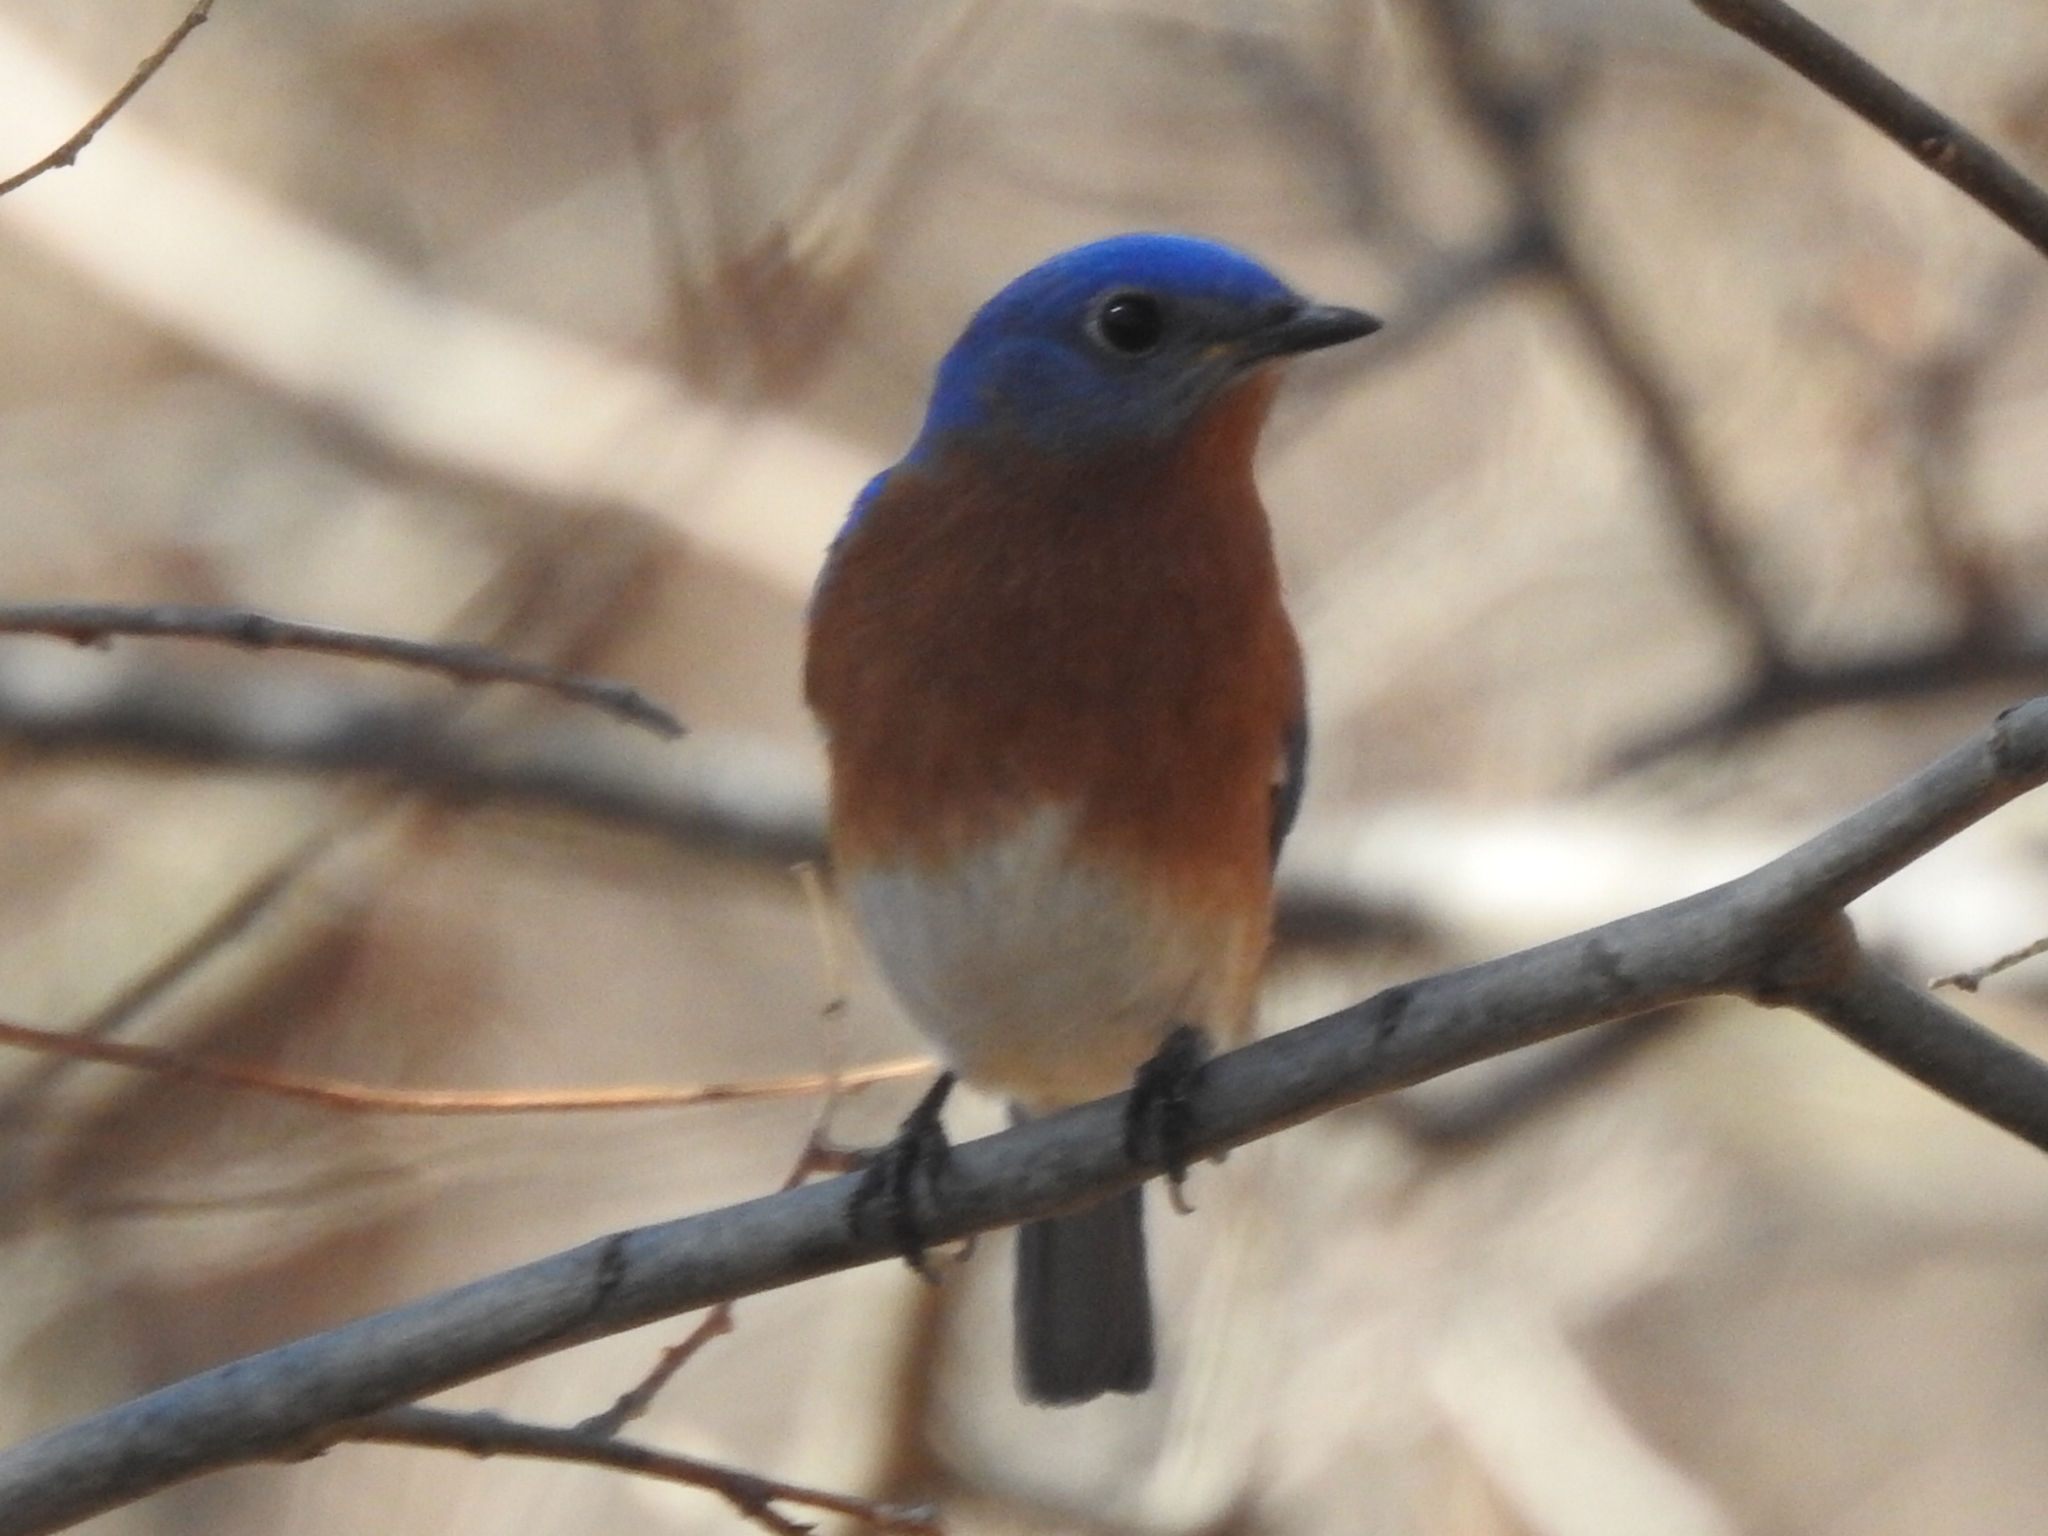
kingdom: Animalia
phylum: Chordata
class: Aves
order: Passeriformes
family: Turdidae
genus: Sialia
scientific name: Sialia sialis
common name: Eastern bluebird
